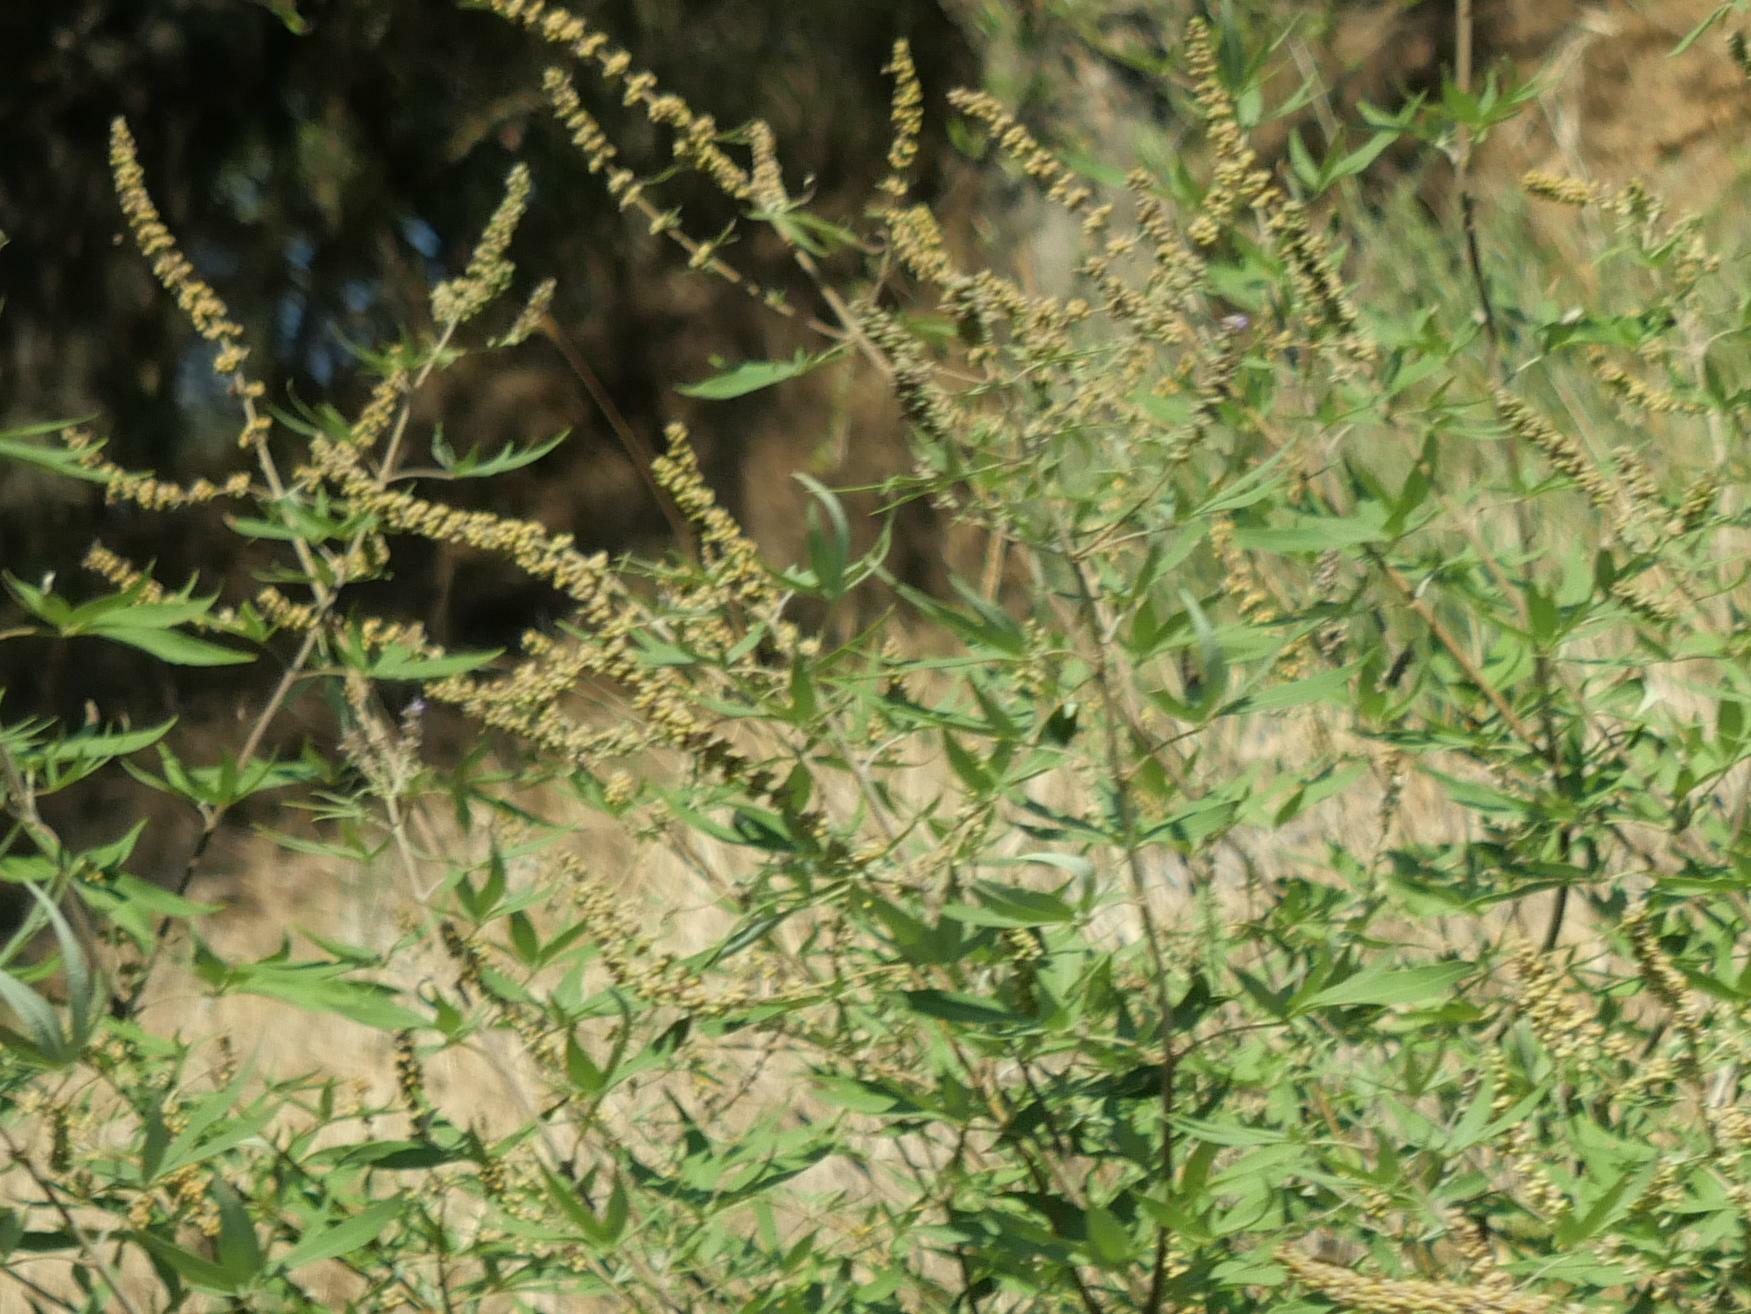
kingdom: Plantae
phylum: Tracheophyta
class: Magnoliopsida
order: Lamiales
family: Lamiaceae
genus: Vitex
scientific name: Vitex agnus-castus
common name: Chasteberry
